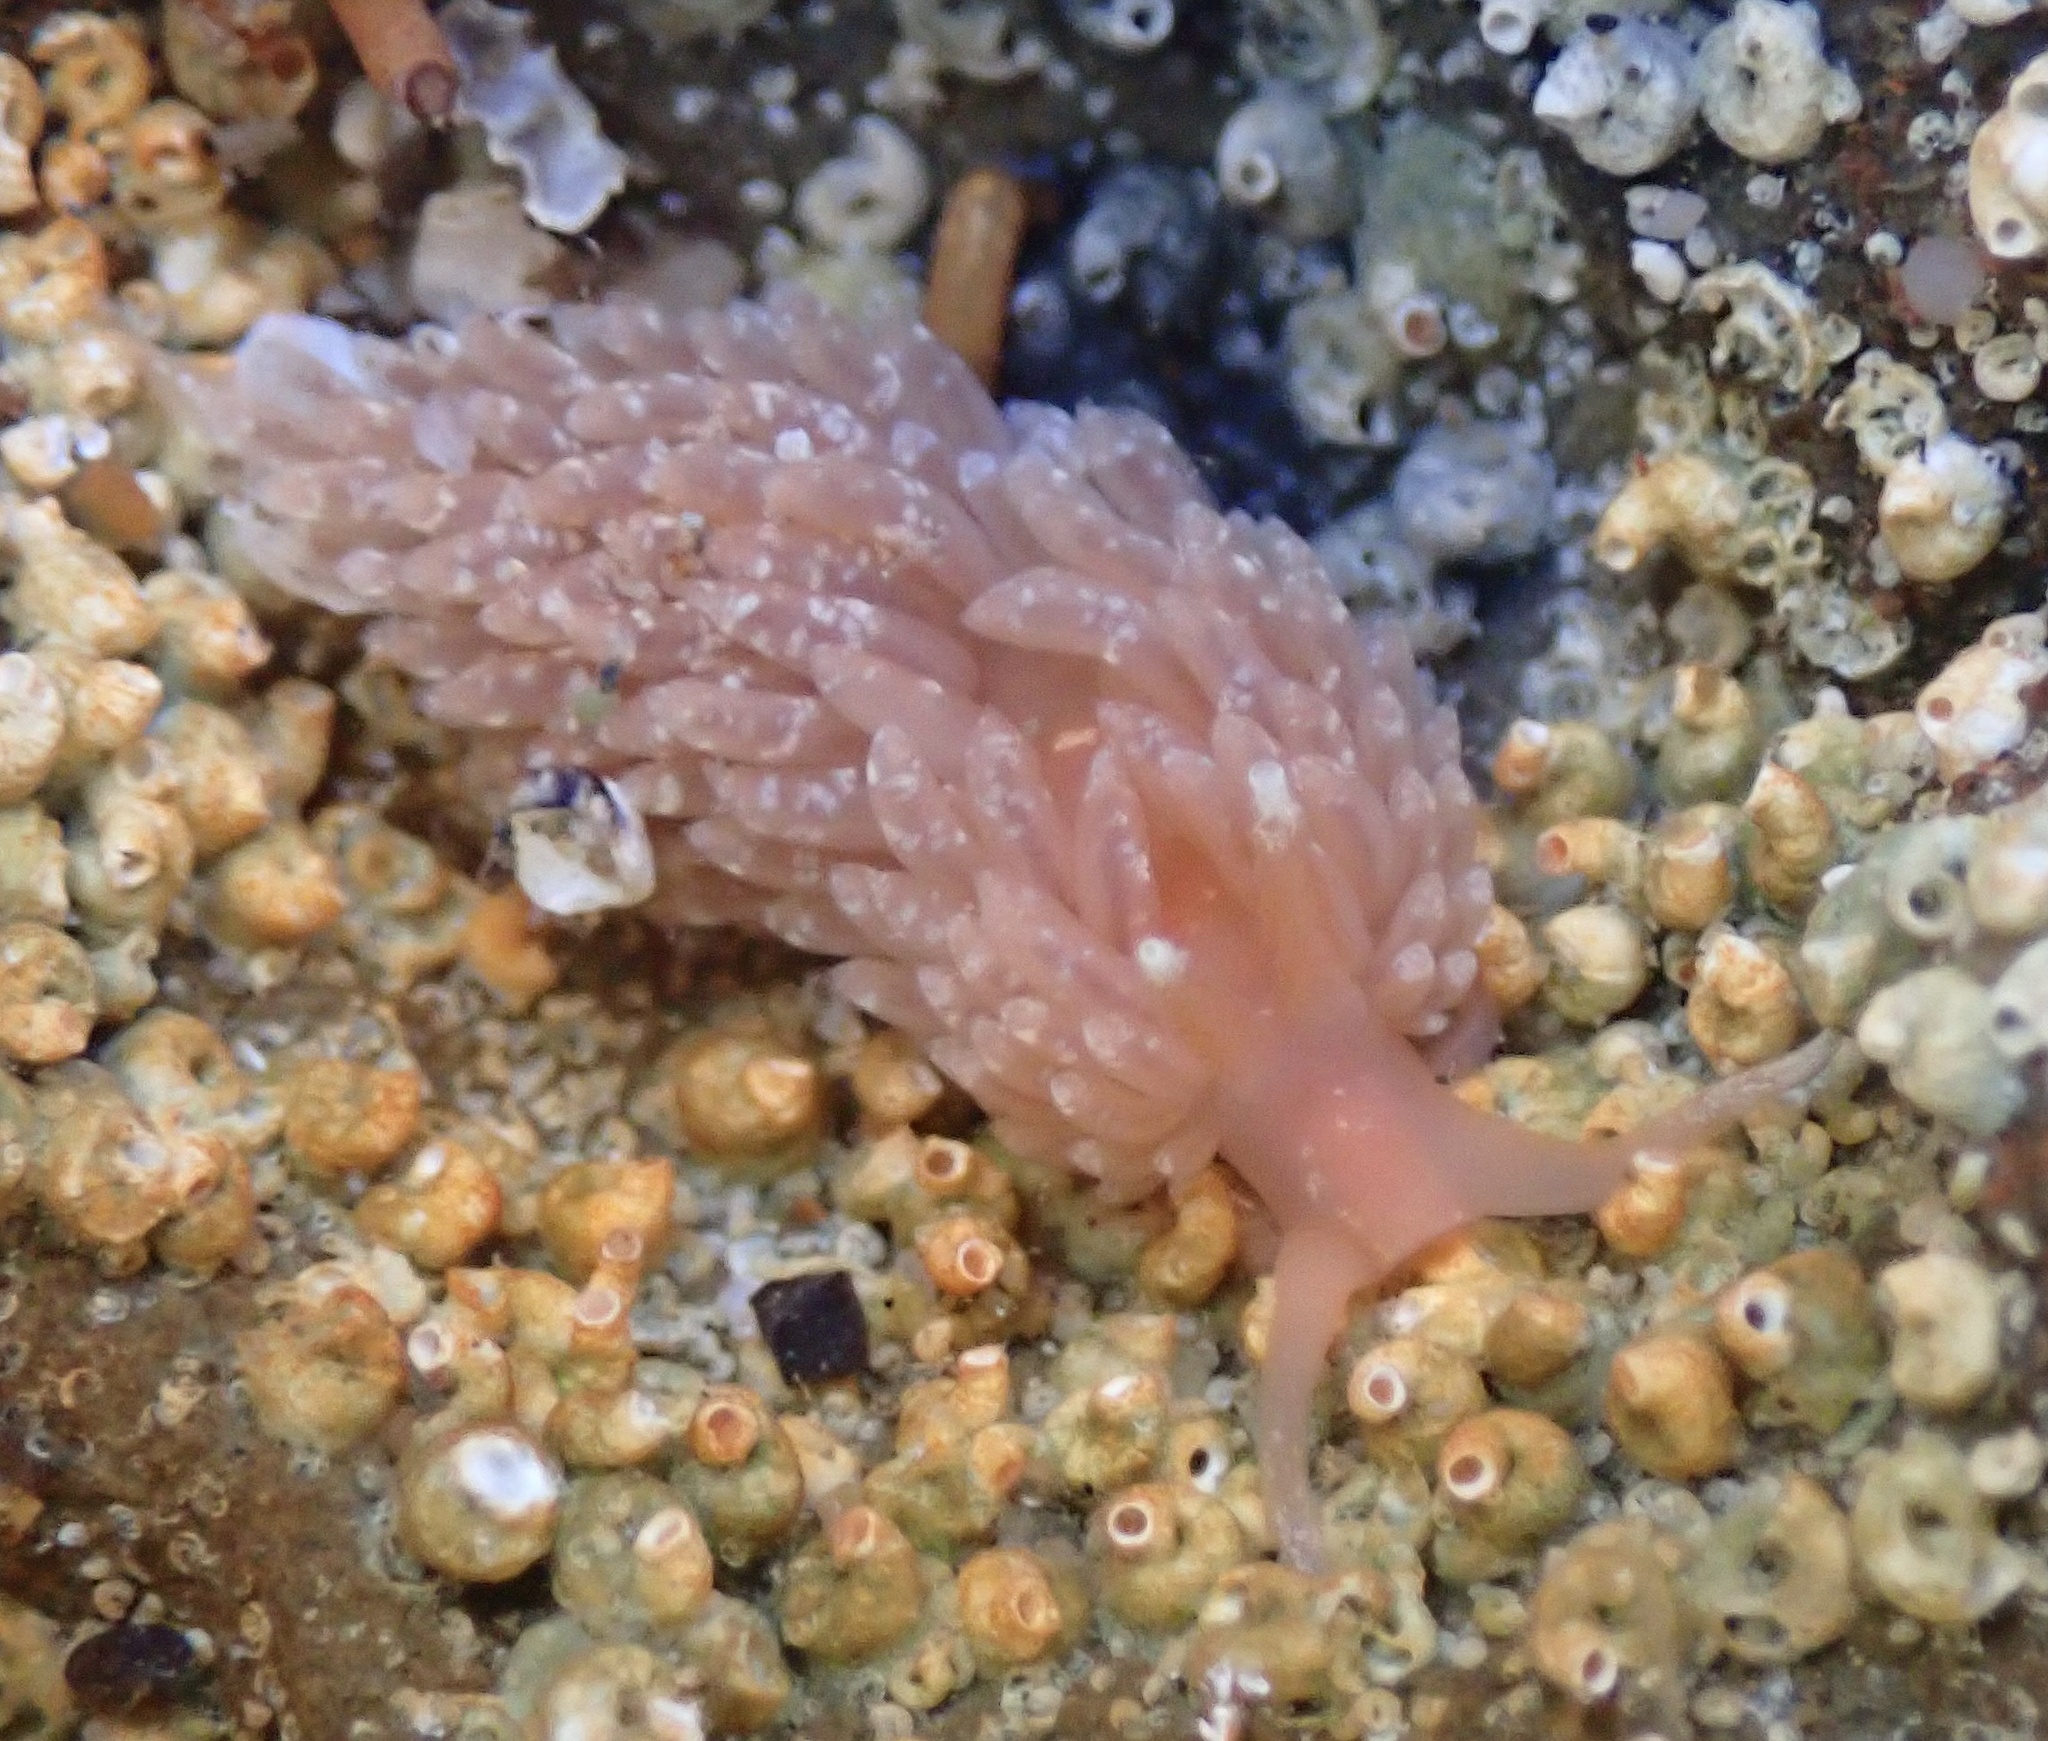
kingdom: Animalia
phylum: Mollusca
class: Gastropoda
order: Nudibranchia
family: Aeolidiidae
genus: Anteaeolidiella
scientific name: Anteaeolidiella chromosoma
